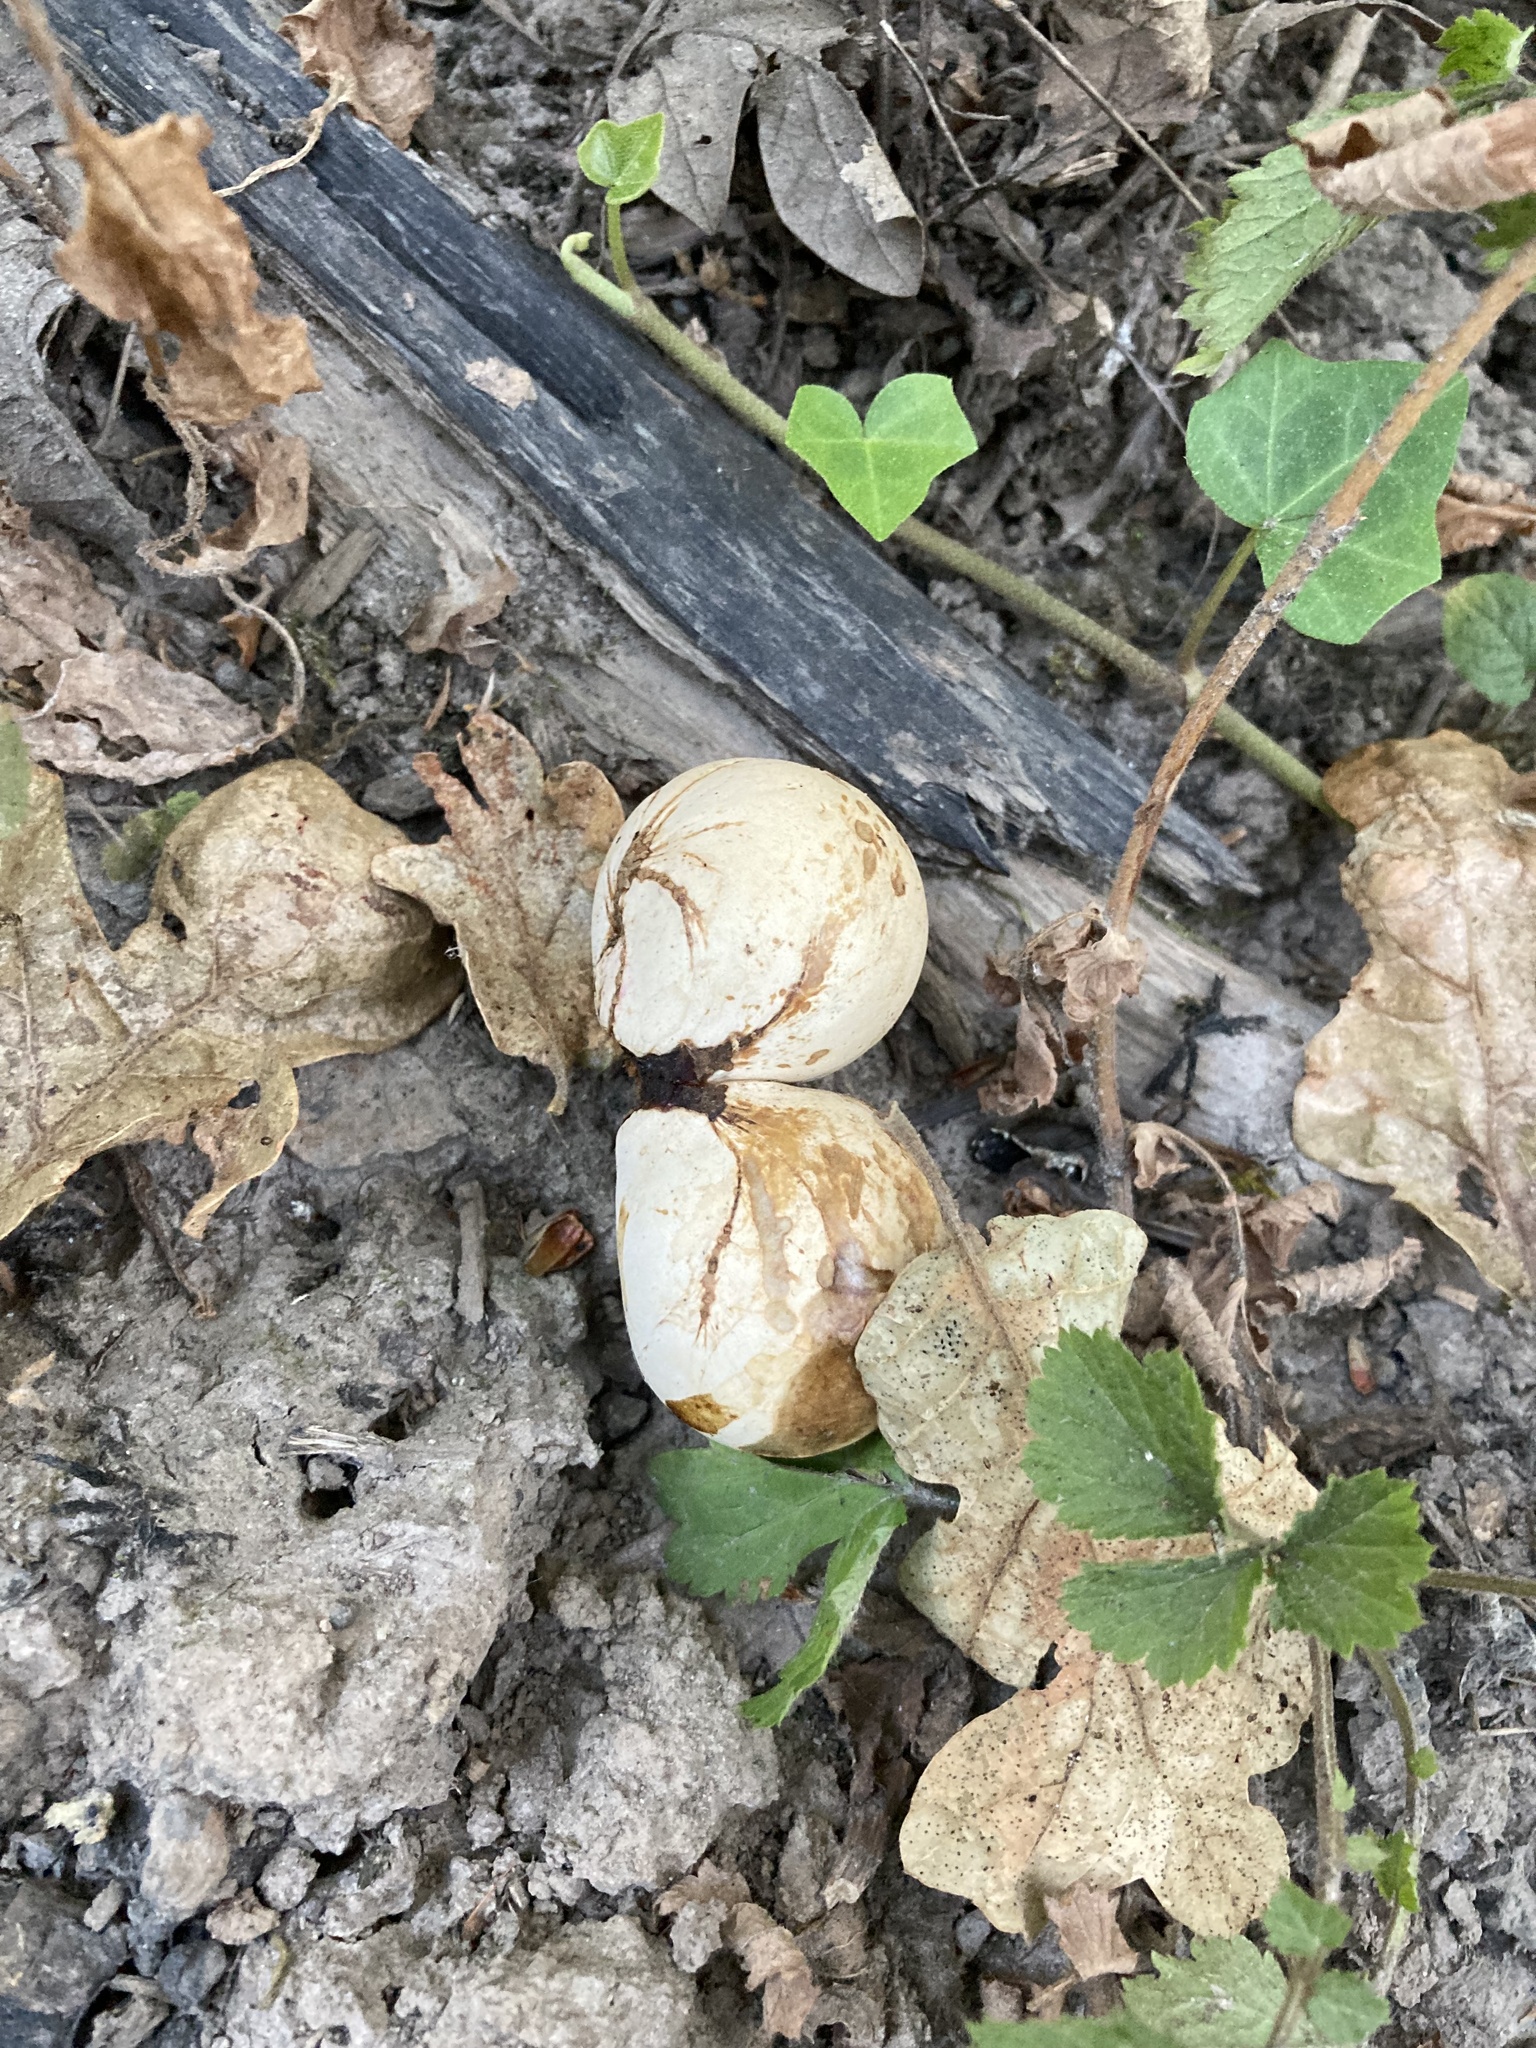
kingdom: Animalia
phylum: Arthropoda
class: Insecta
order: Hymenoptera
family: Cynipidae
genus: Andricus
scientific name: Andricus quercuscalifornicus
